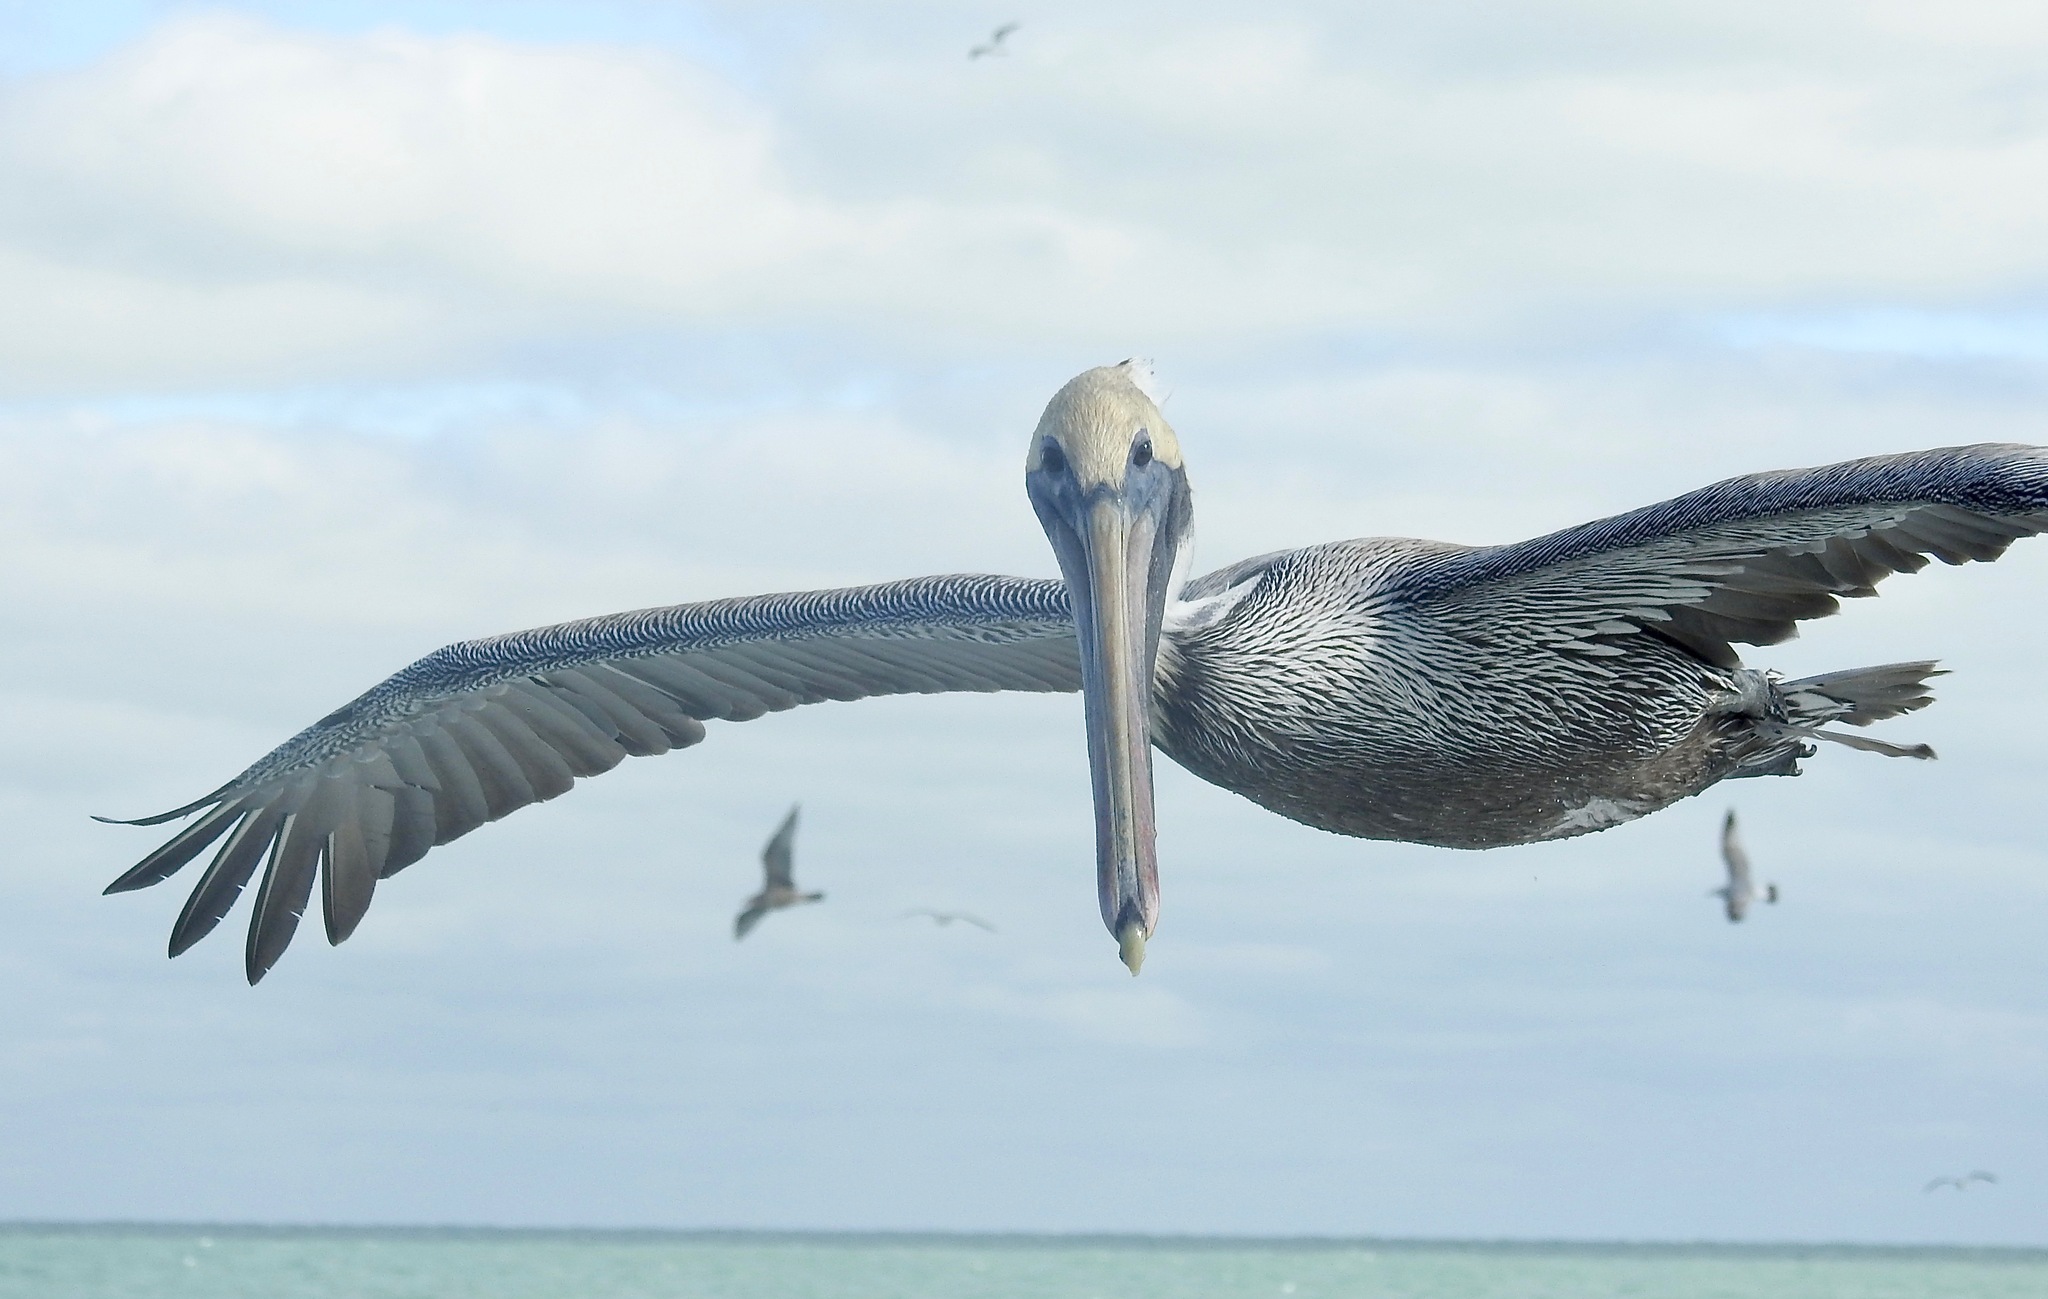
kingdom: Animalia
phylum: Chordata
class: Aves
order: Pelecaniformes
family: Pelecanidae
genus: Pelecanus
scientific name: Pelecanus occidentalis
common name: Brown pelican
